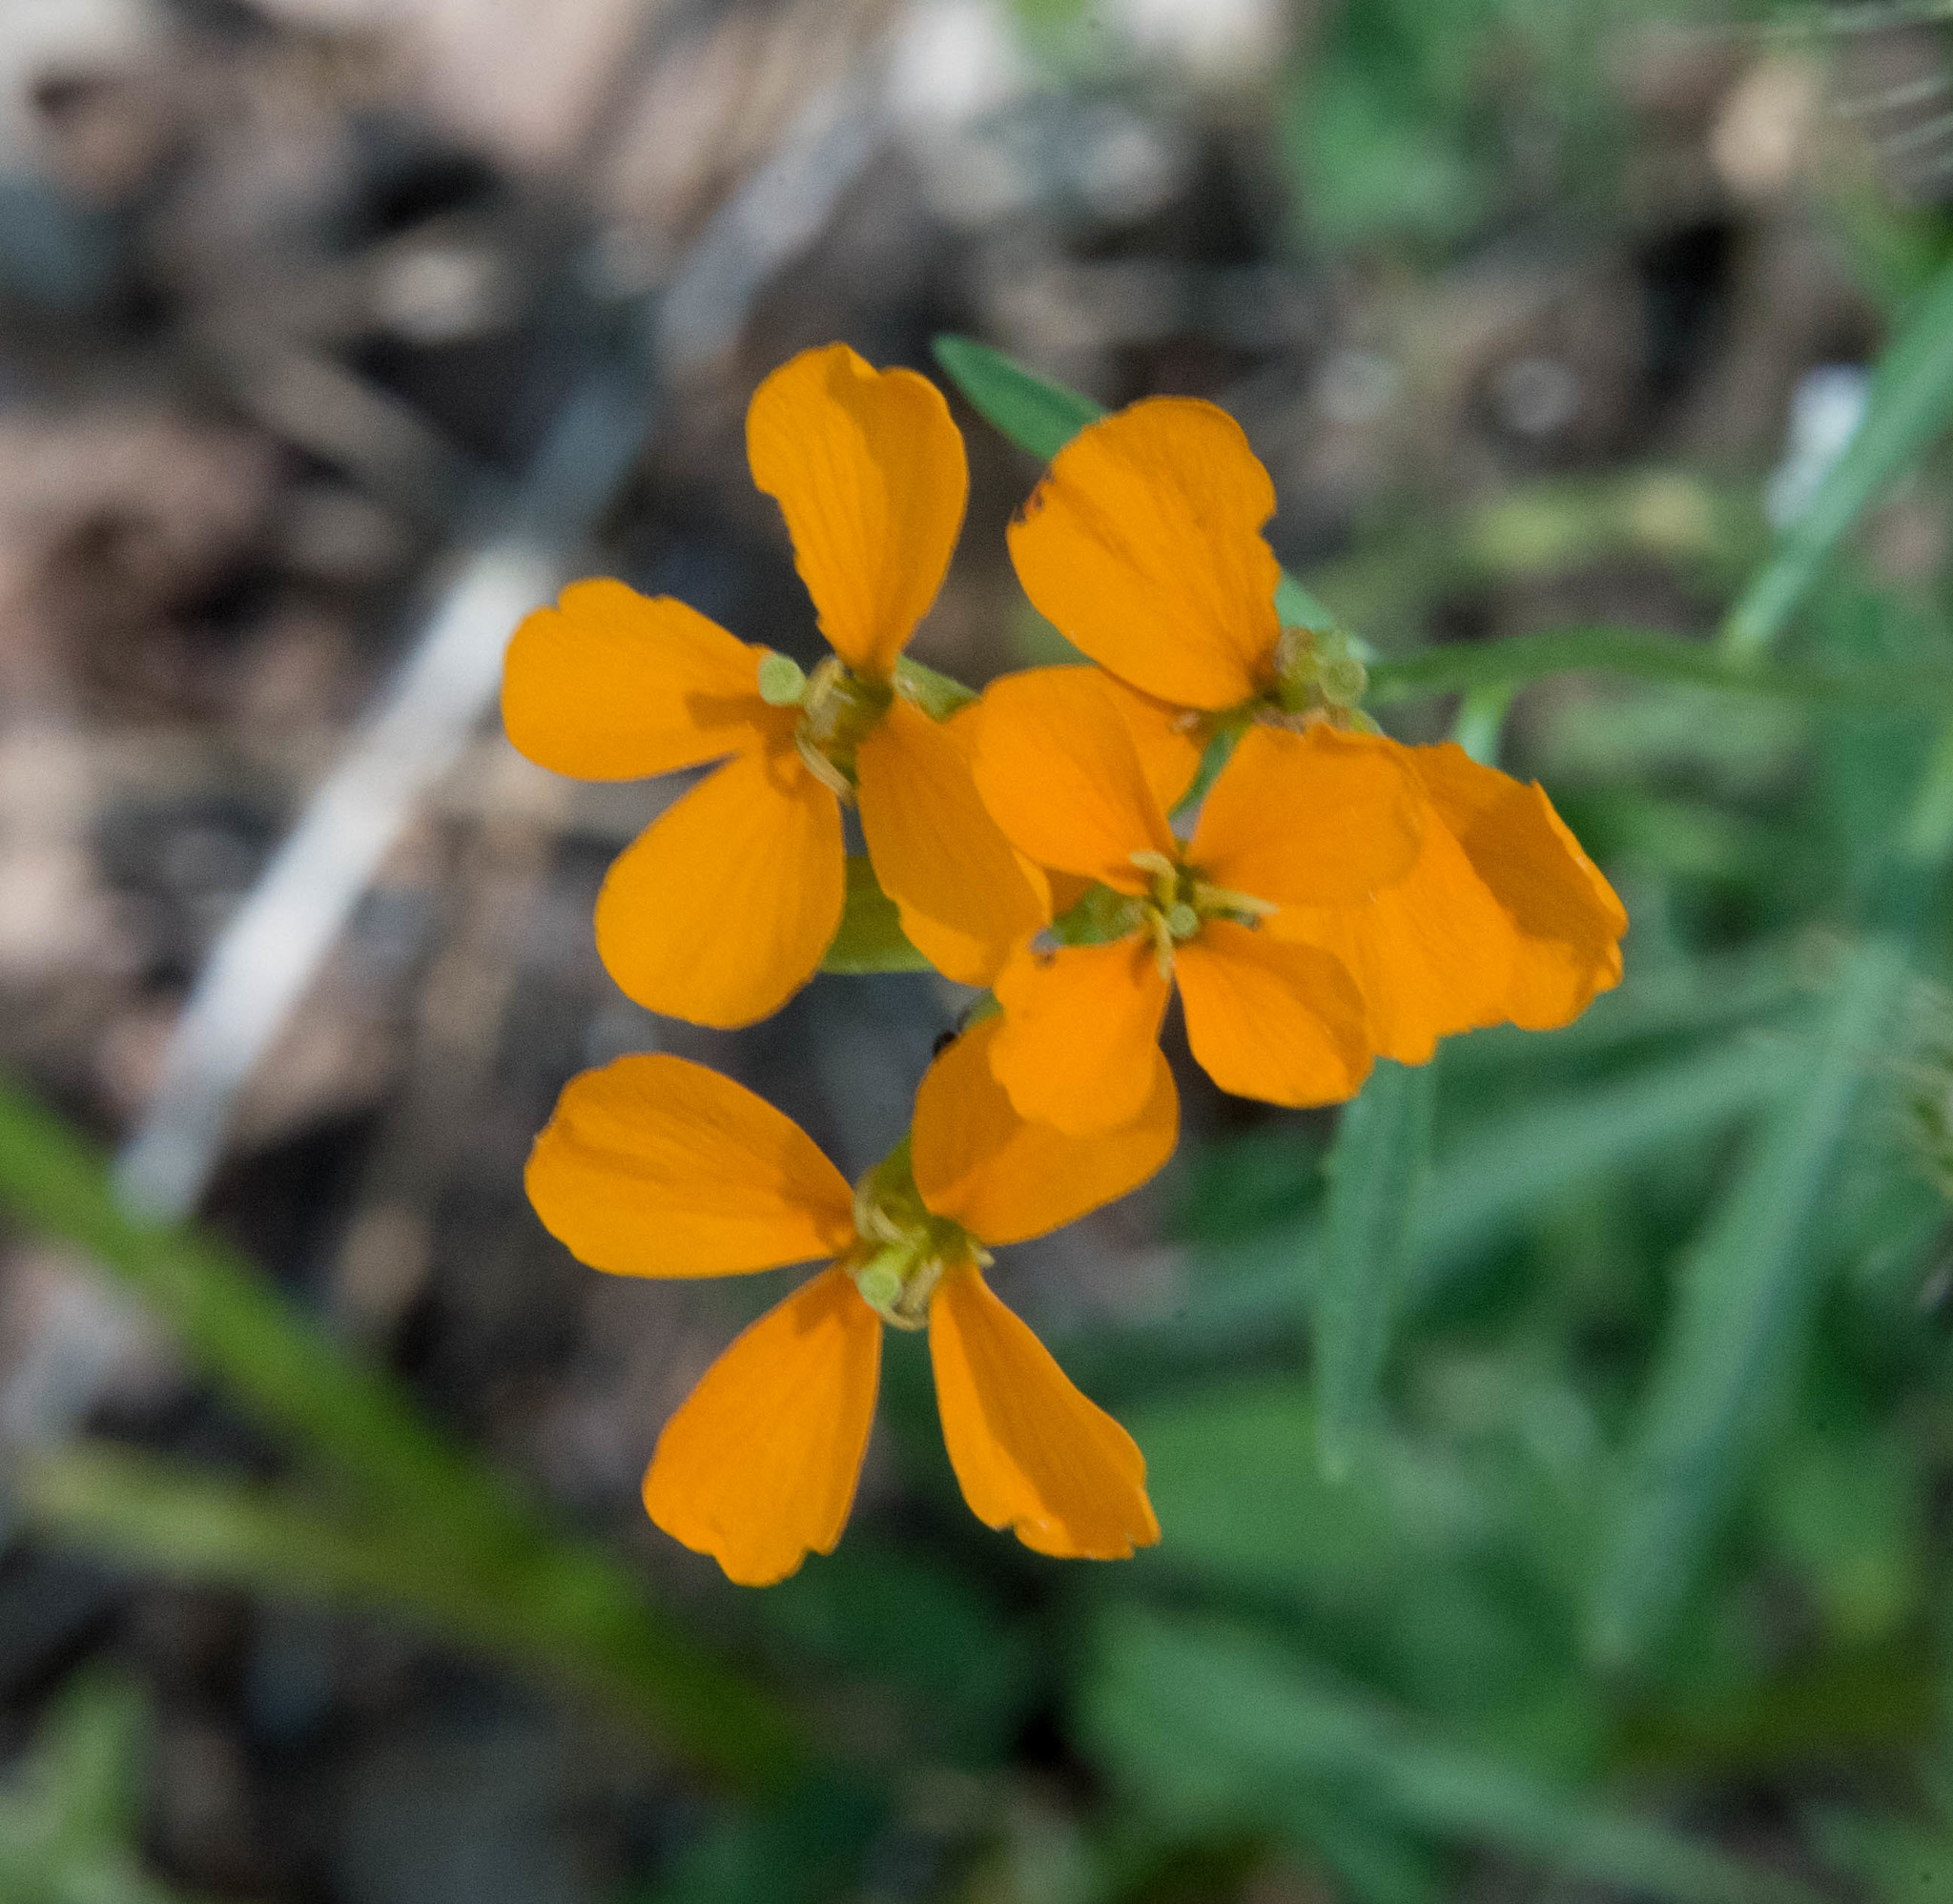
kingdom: Plantae
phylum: Tracheophyta
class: Magnoliopsida
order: Brassicales
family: Brassicaceae
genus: Erysimum
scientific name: Erysimum capitatum
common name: Western wallflower
